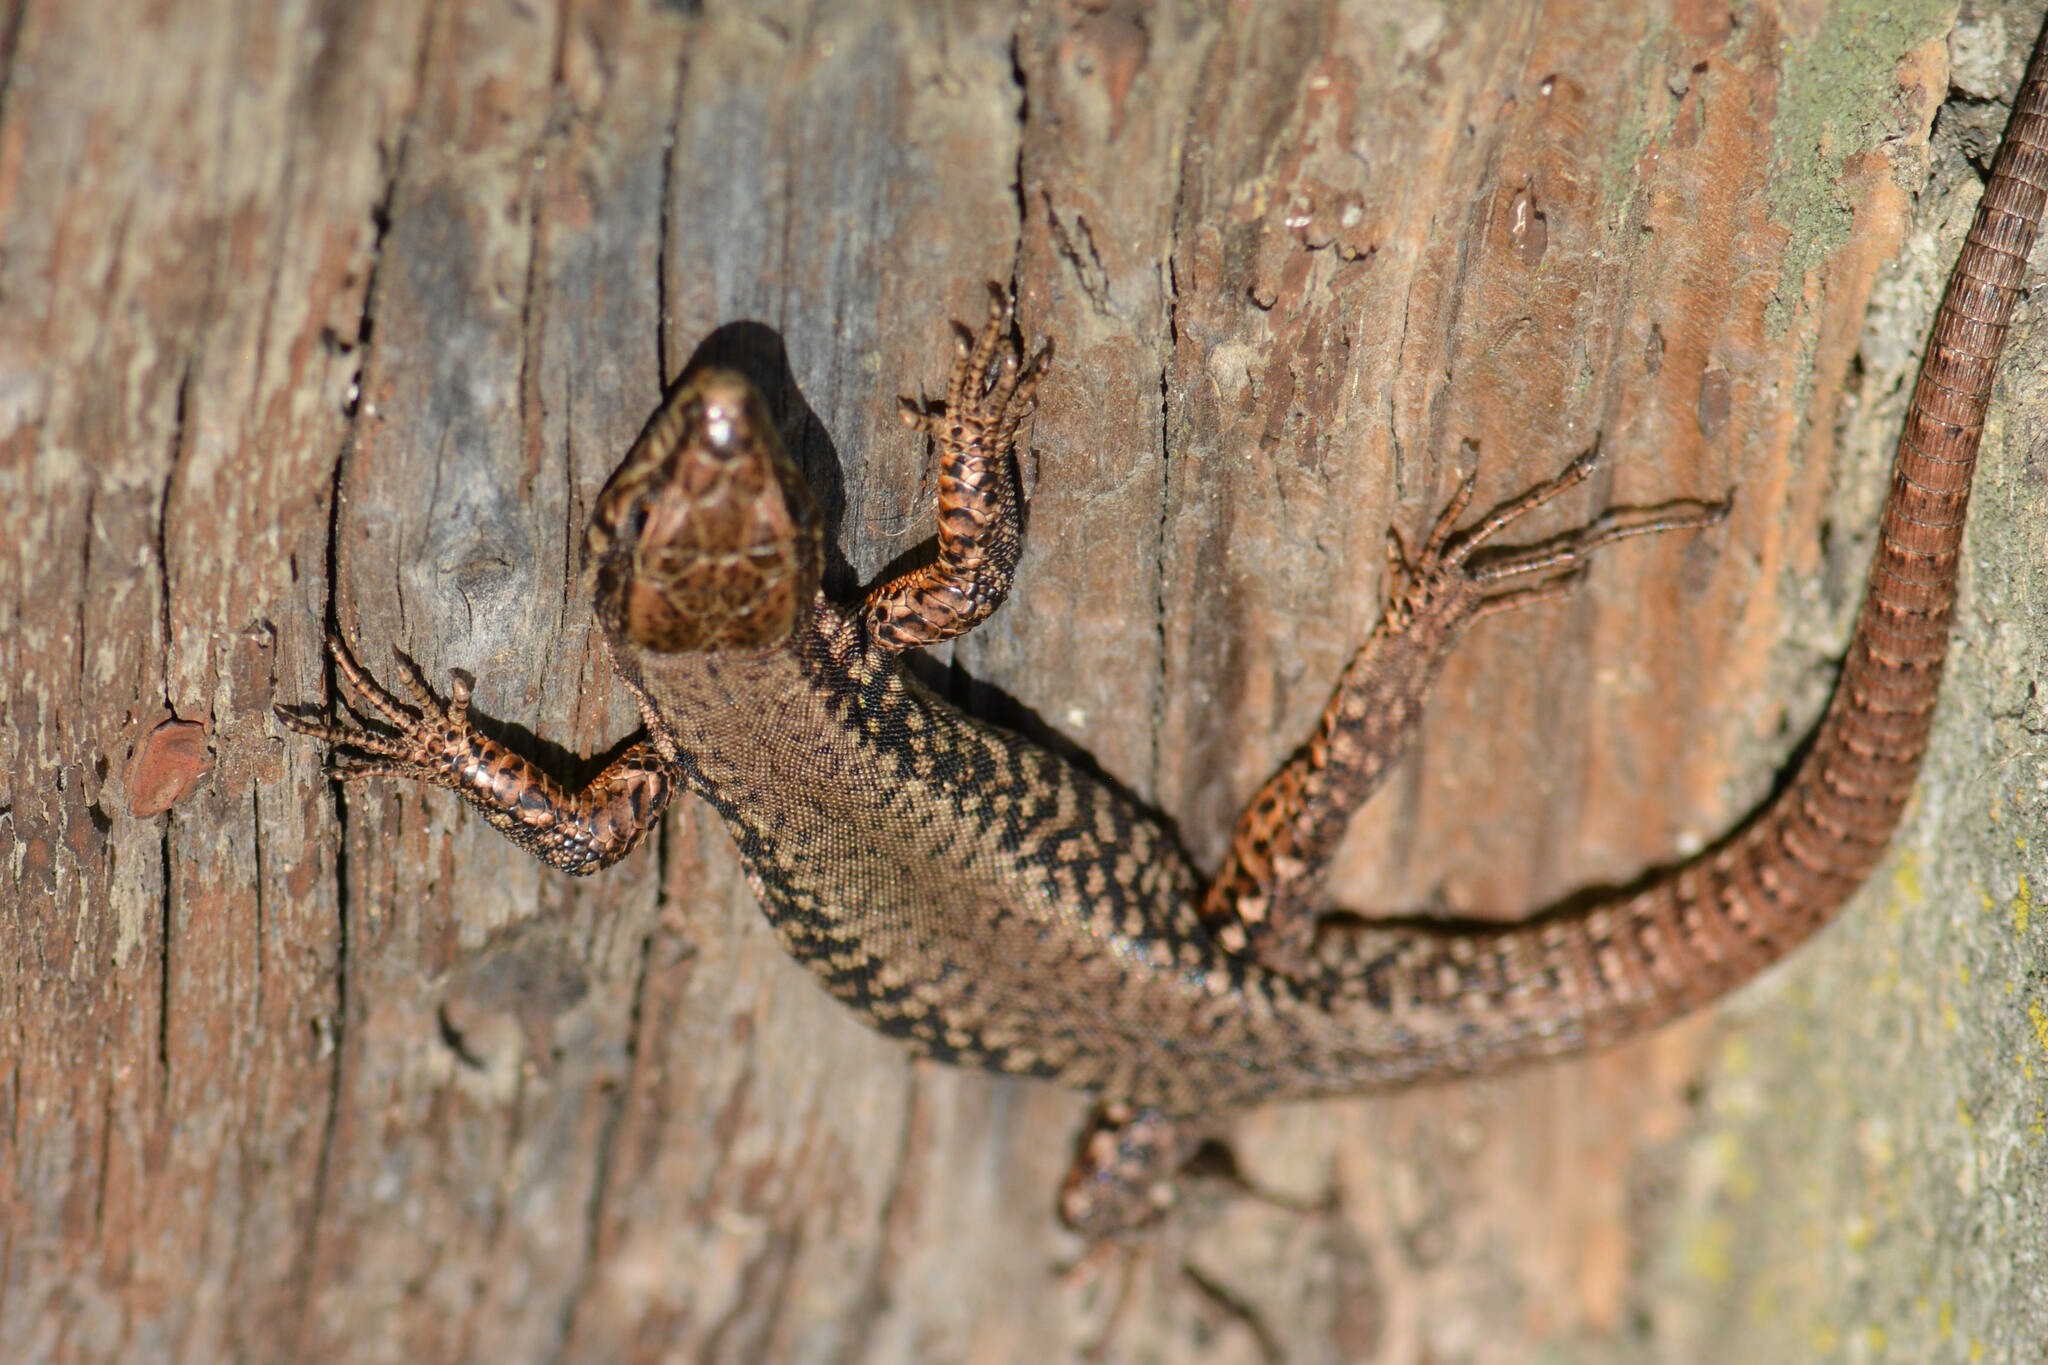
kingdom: Animalia
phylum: Chordata
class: Squamata
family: Lacertidae
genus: Podarcis
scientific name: Podarcis muralis
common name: Common wall lizard
